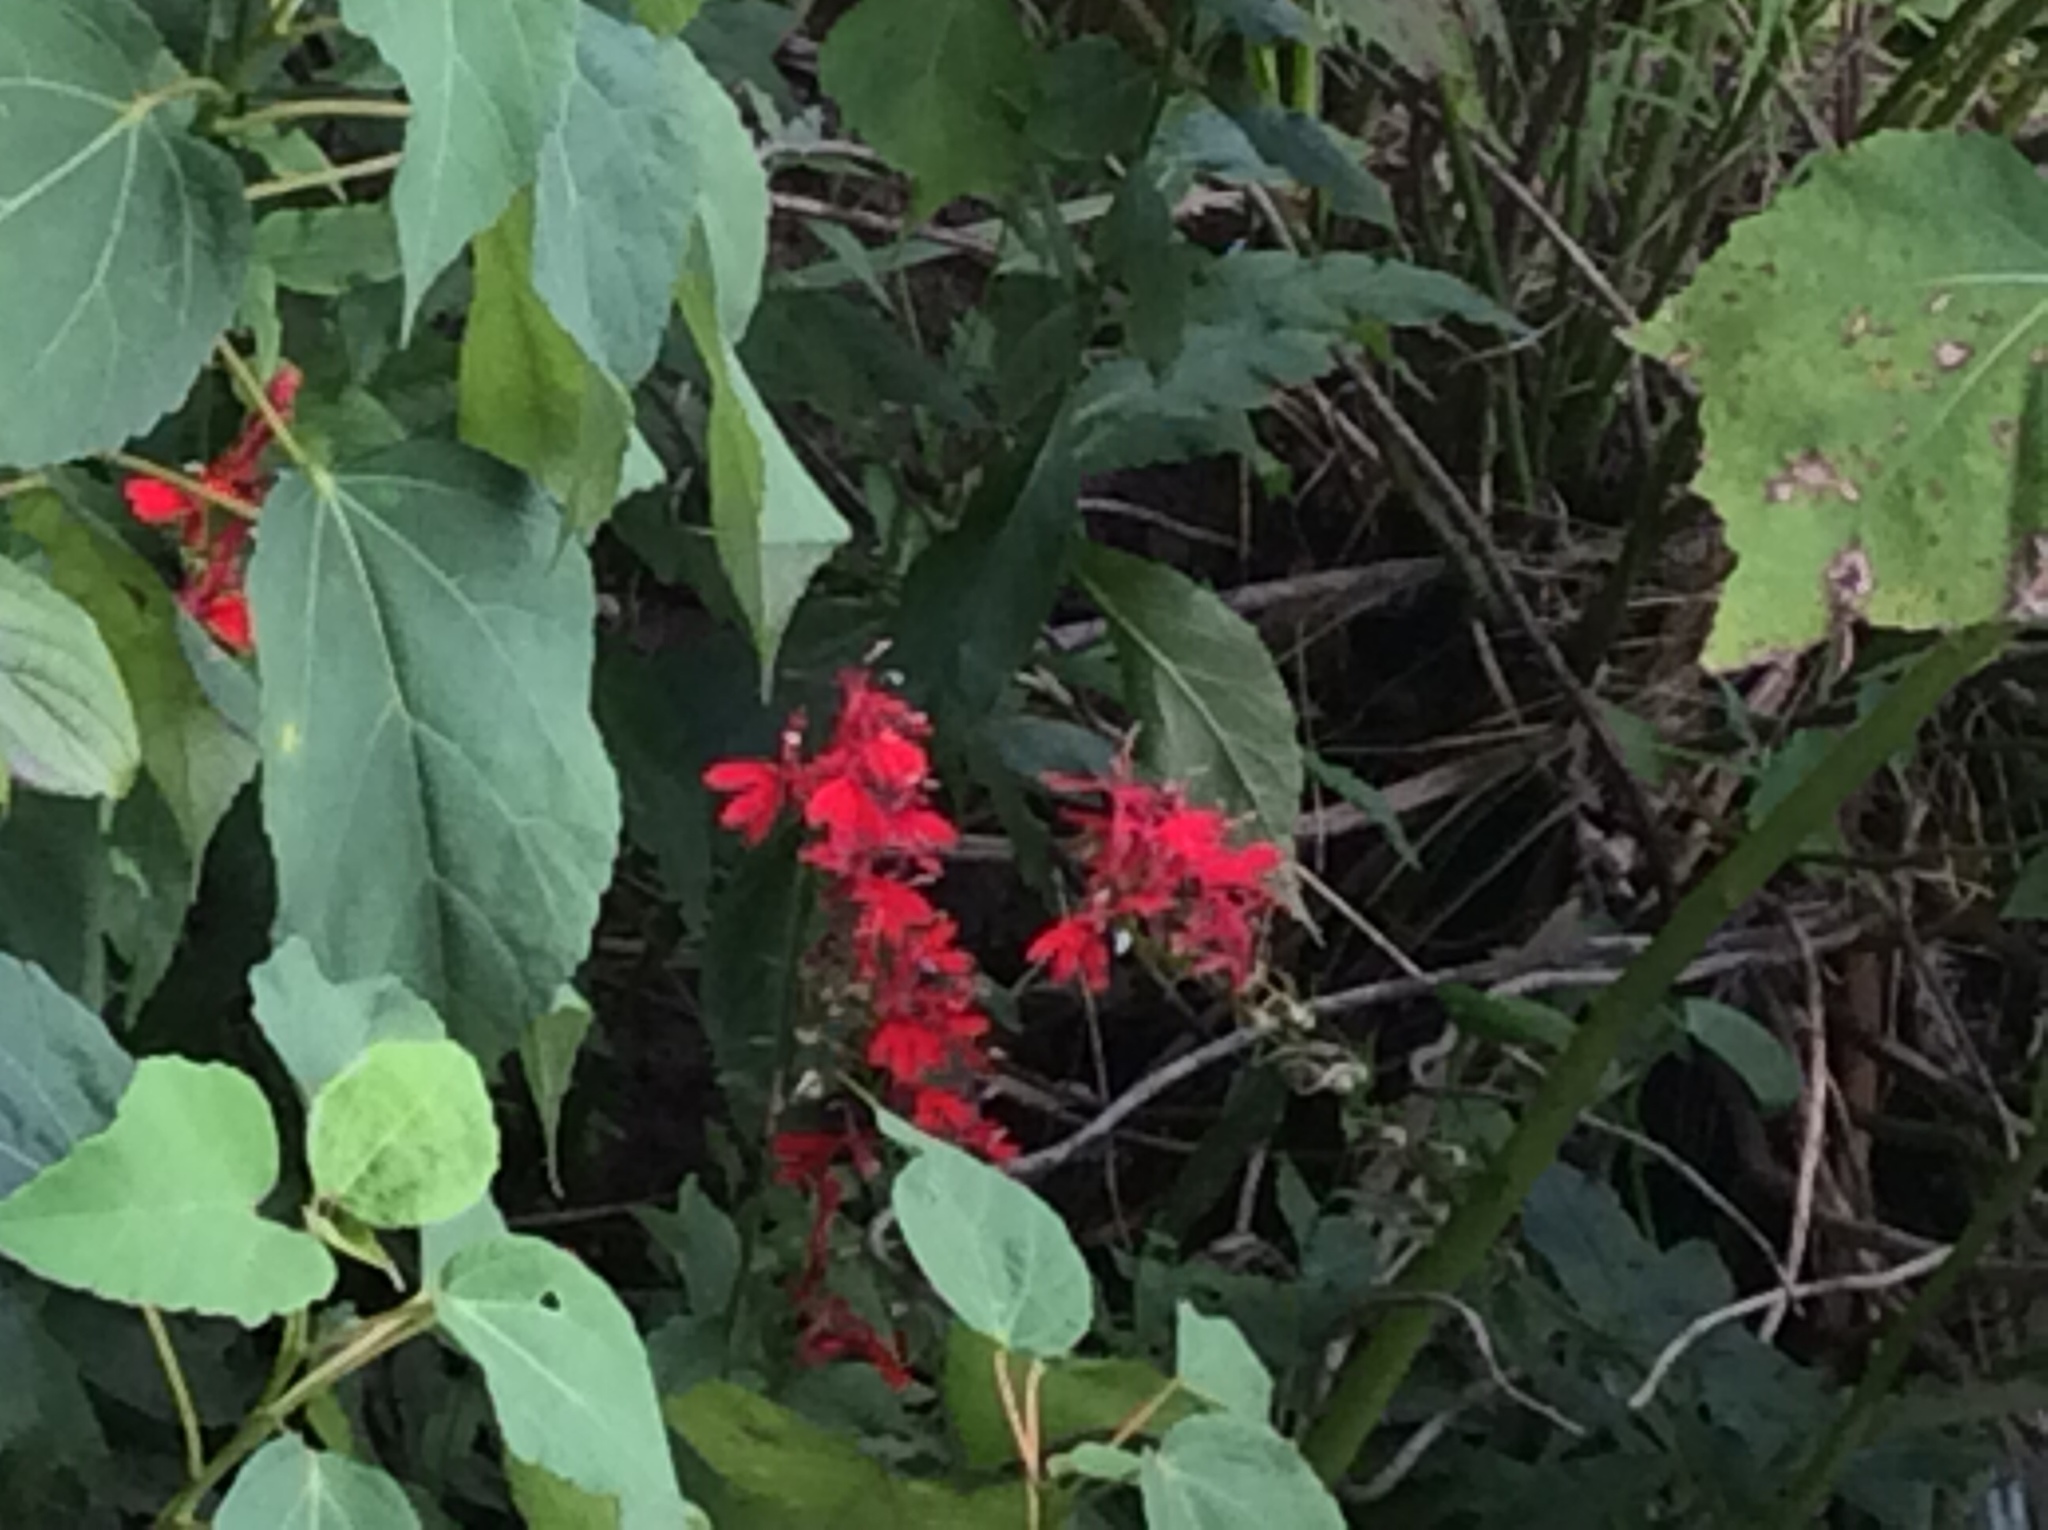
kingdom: Plantae
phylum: Tracheophyta
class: Magnoliopsida
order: Asterales
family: Campanulaceae
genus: Lobelia
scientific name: Lobelia cardinalis
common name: Cardinal flower
